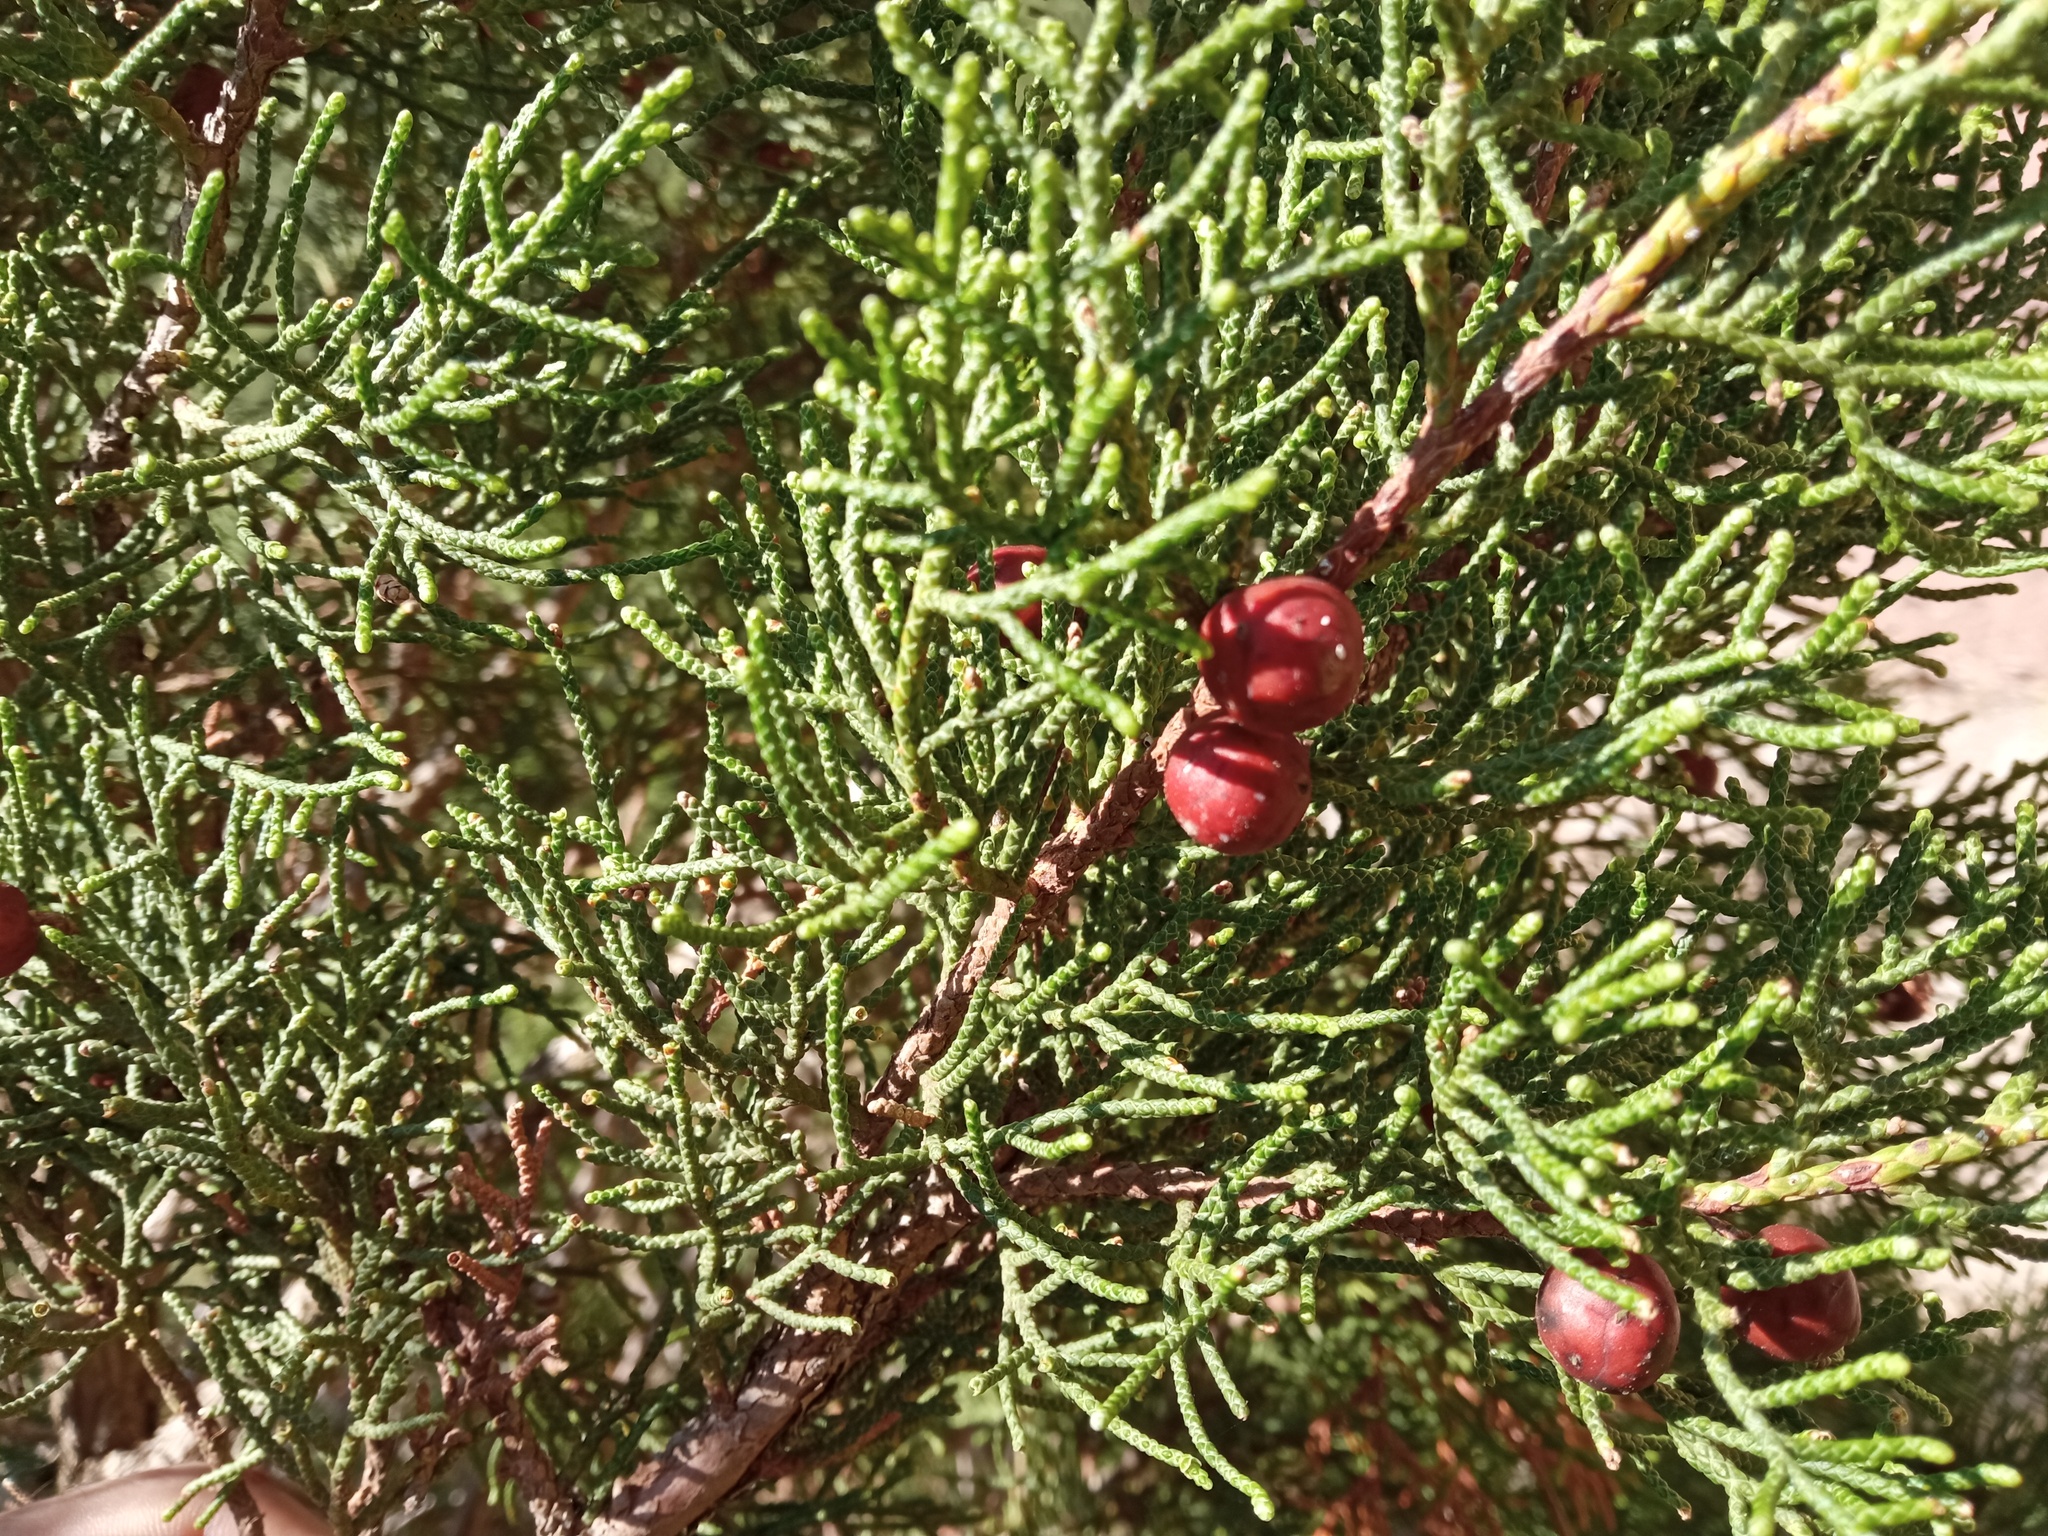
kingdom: Plantae
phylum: Tracheophyta
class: Pinopsida
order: Pinales
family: Cupressaceae
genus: Juniperus
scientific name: Juniperus phoenicea
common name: Phoenician juniper
